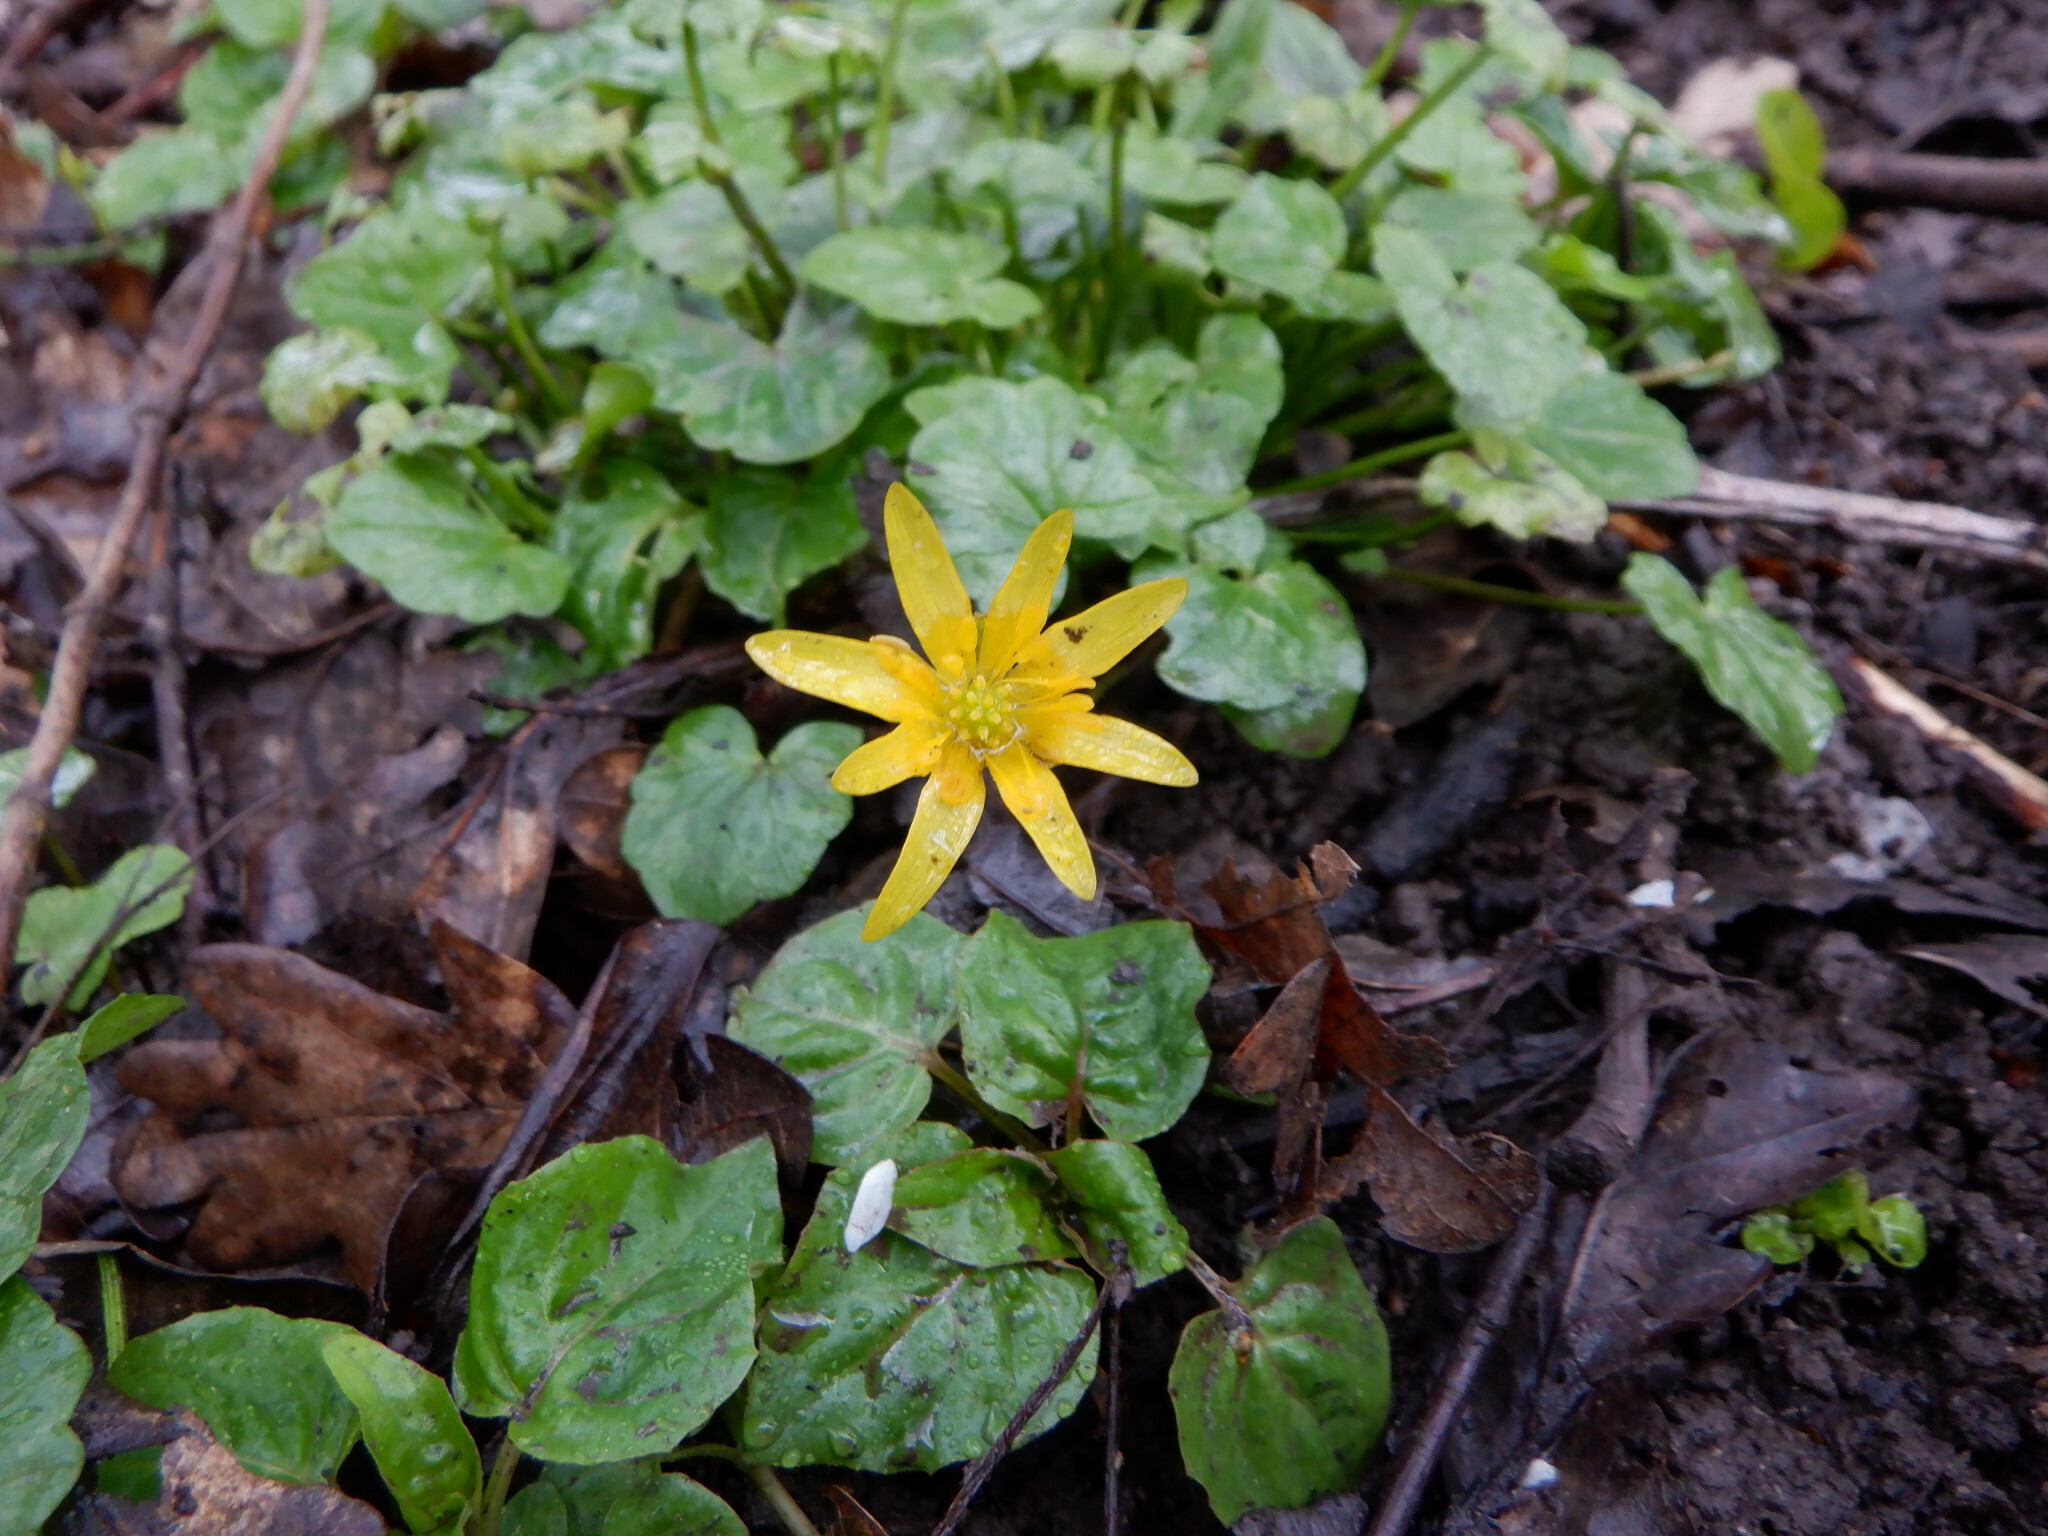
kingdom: Plantae
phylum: Tracheophyta
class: Magnoliopsida
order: Ranunculales
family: Ranunculaceae
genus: Ficaria
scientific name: Ficaria verna
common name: Lesser celandine
